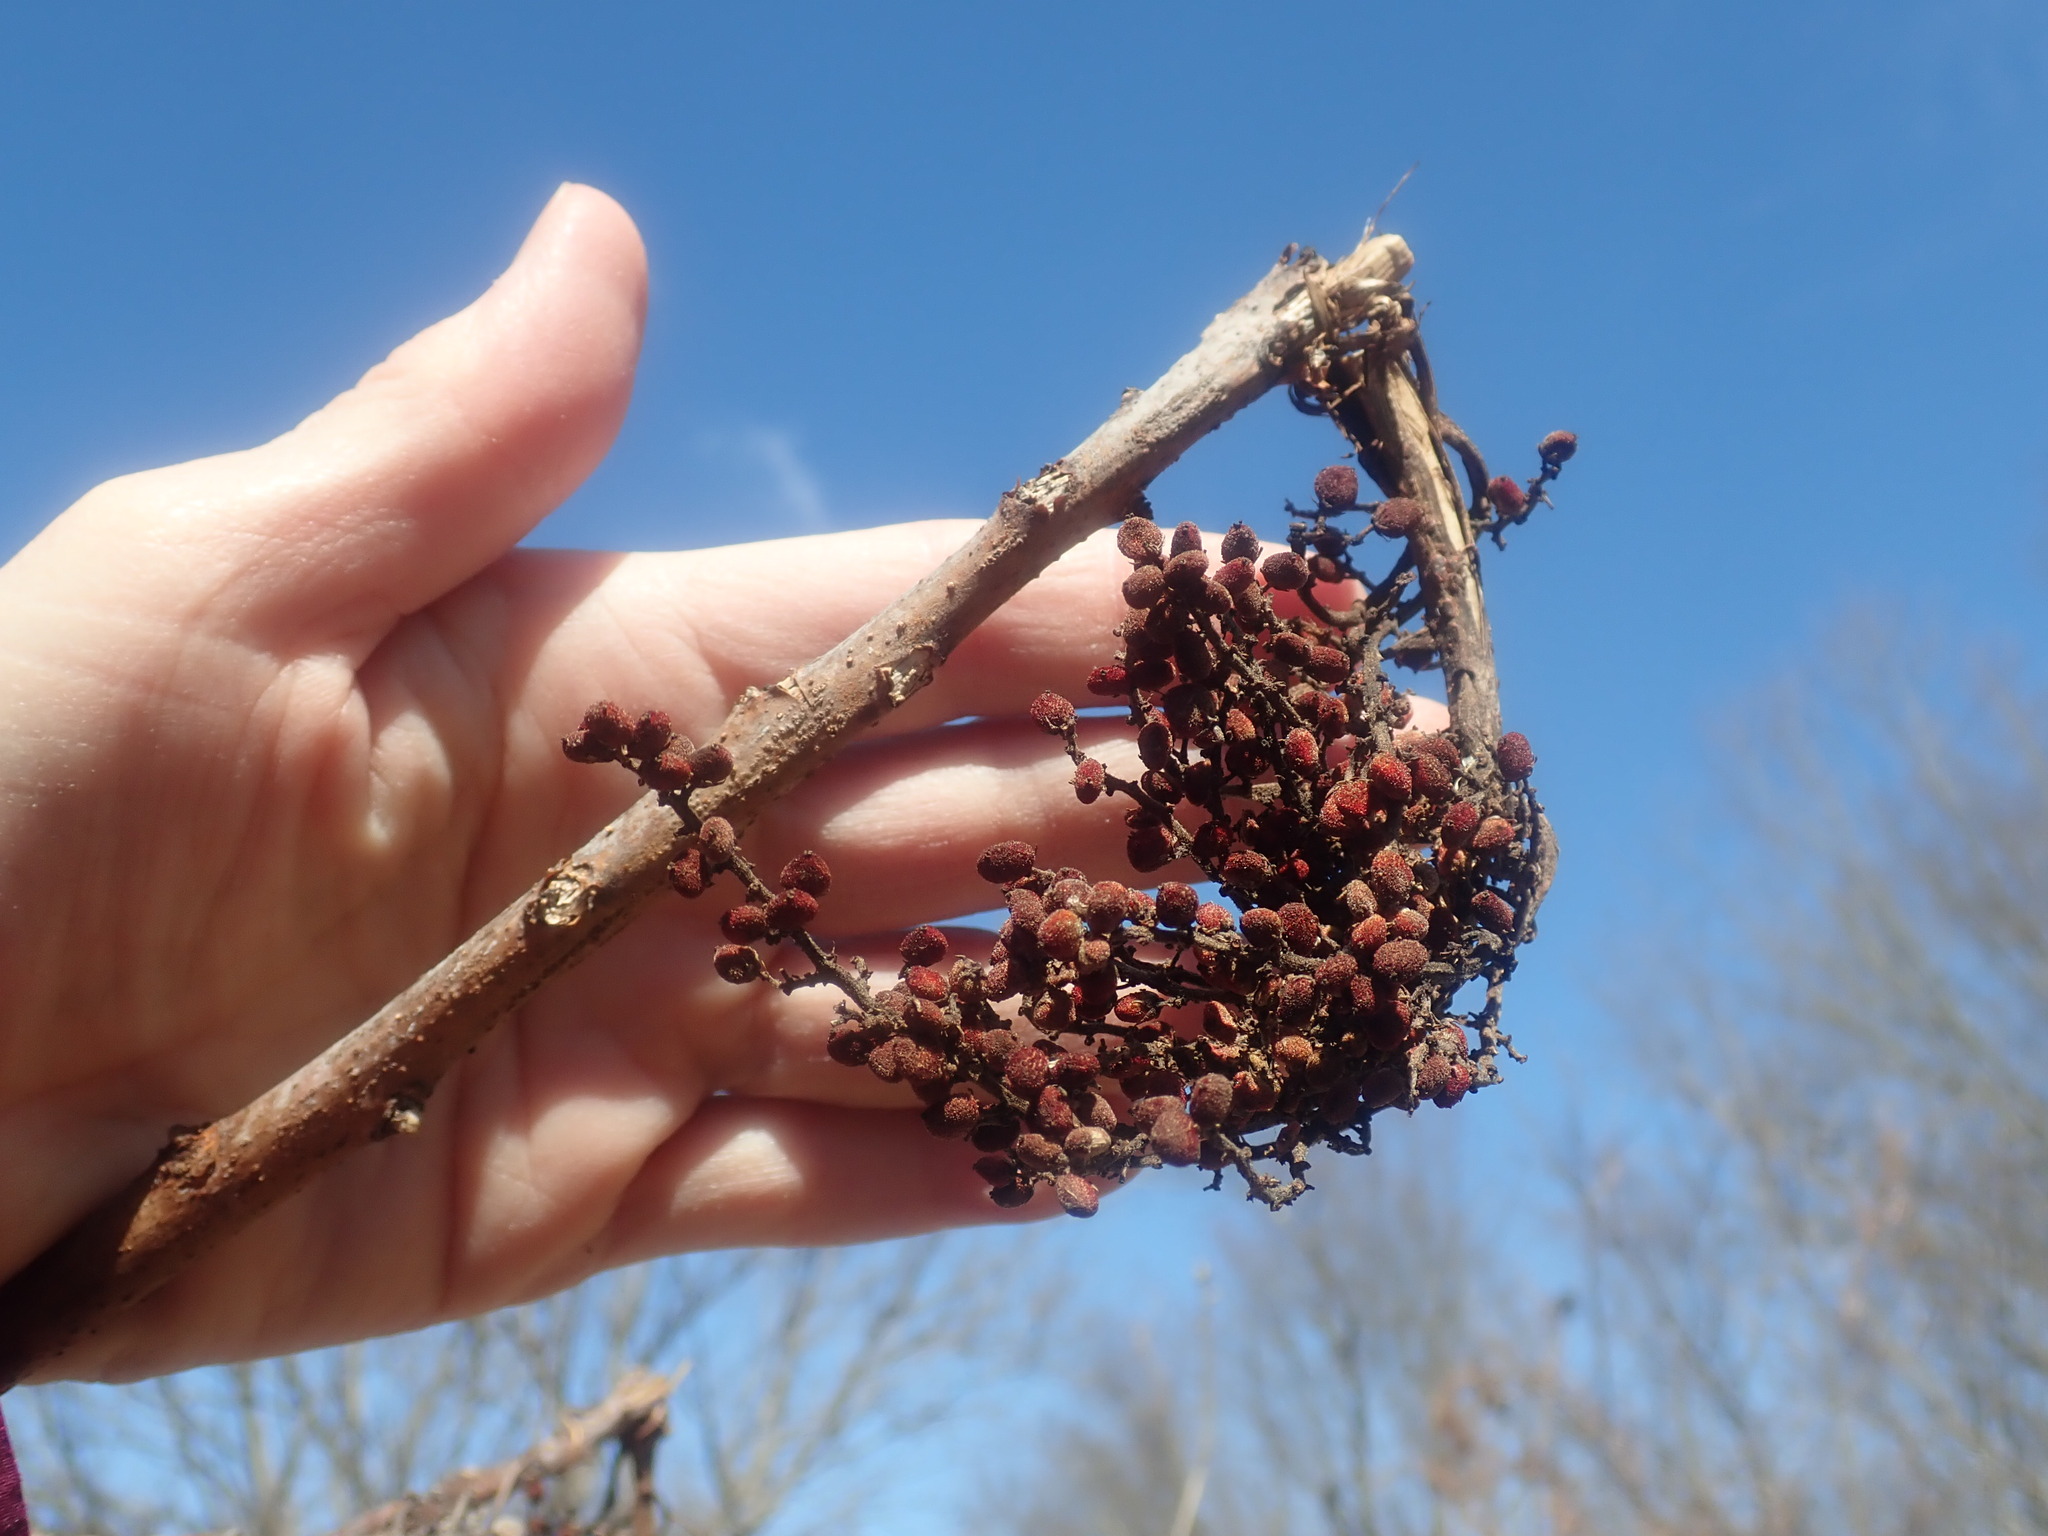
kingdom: Plantae
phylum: Tracheophyta
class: Magnoliopsida
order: Sapindales
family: Anacardiaceae
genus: Rhus
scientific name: Rhus glabra
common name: Scarlet sumac
